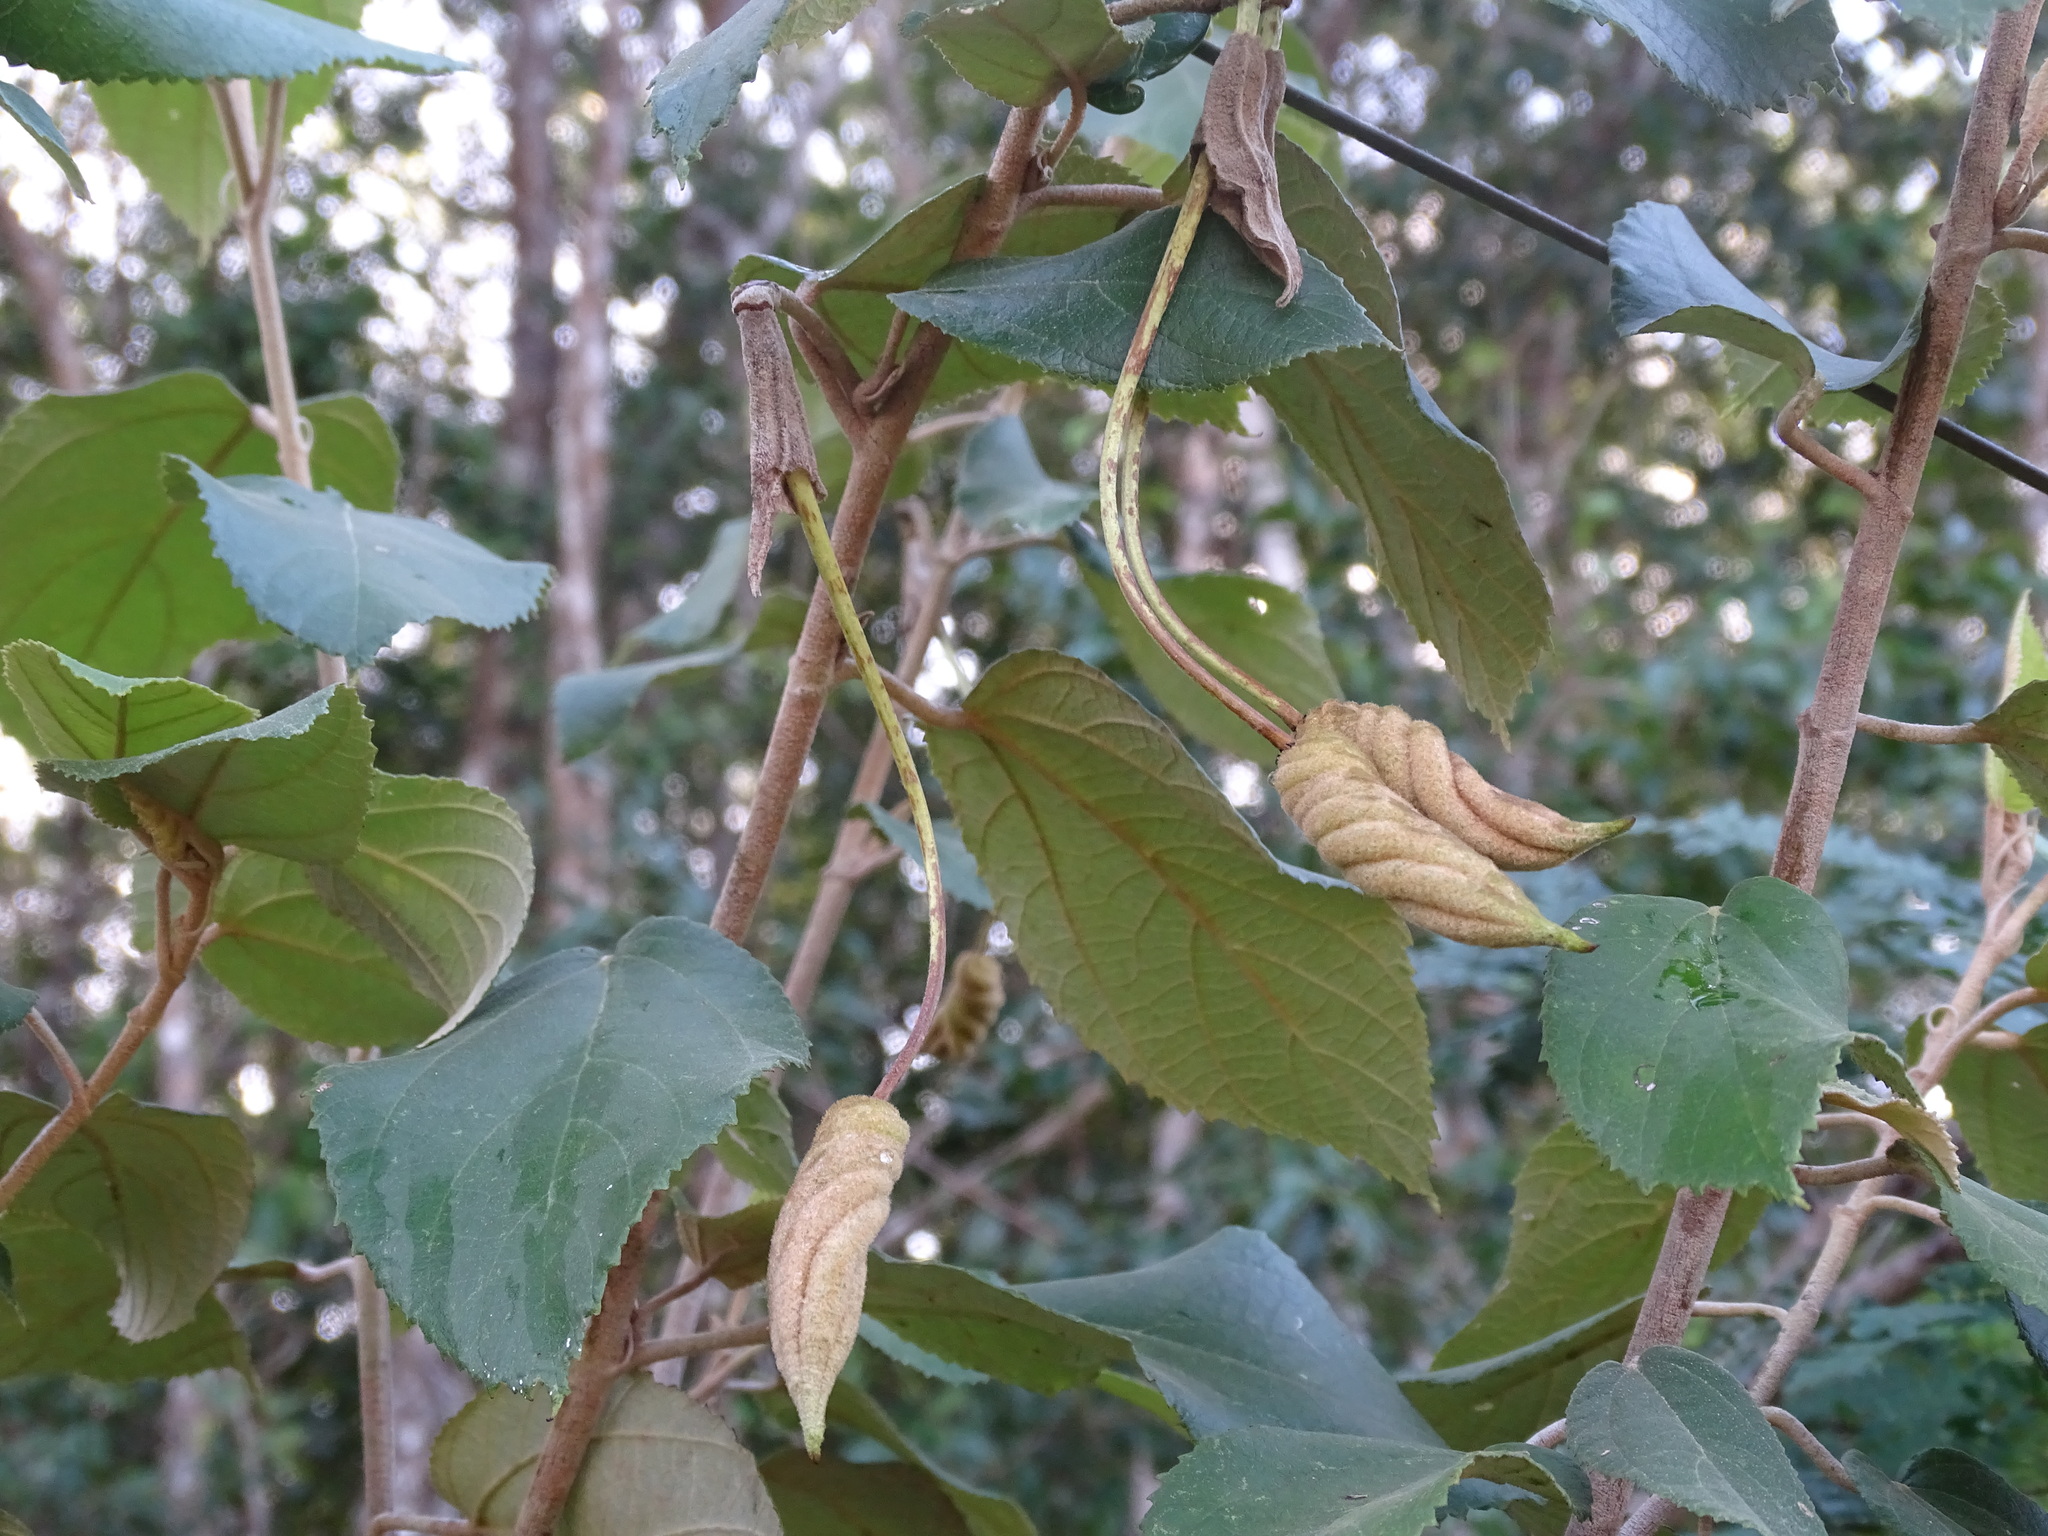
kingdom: Plantae
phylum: Tracheophyta
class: Magnoliopsida
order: Malvales
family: Malvaceae
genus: Helicteres
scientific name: Helicteres baruensis
